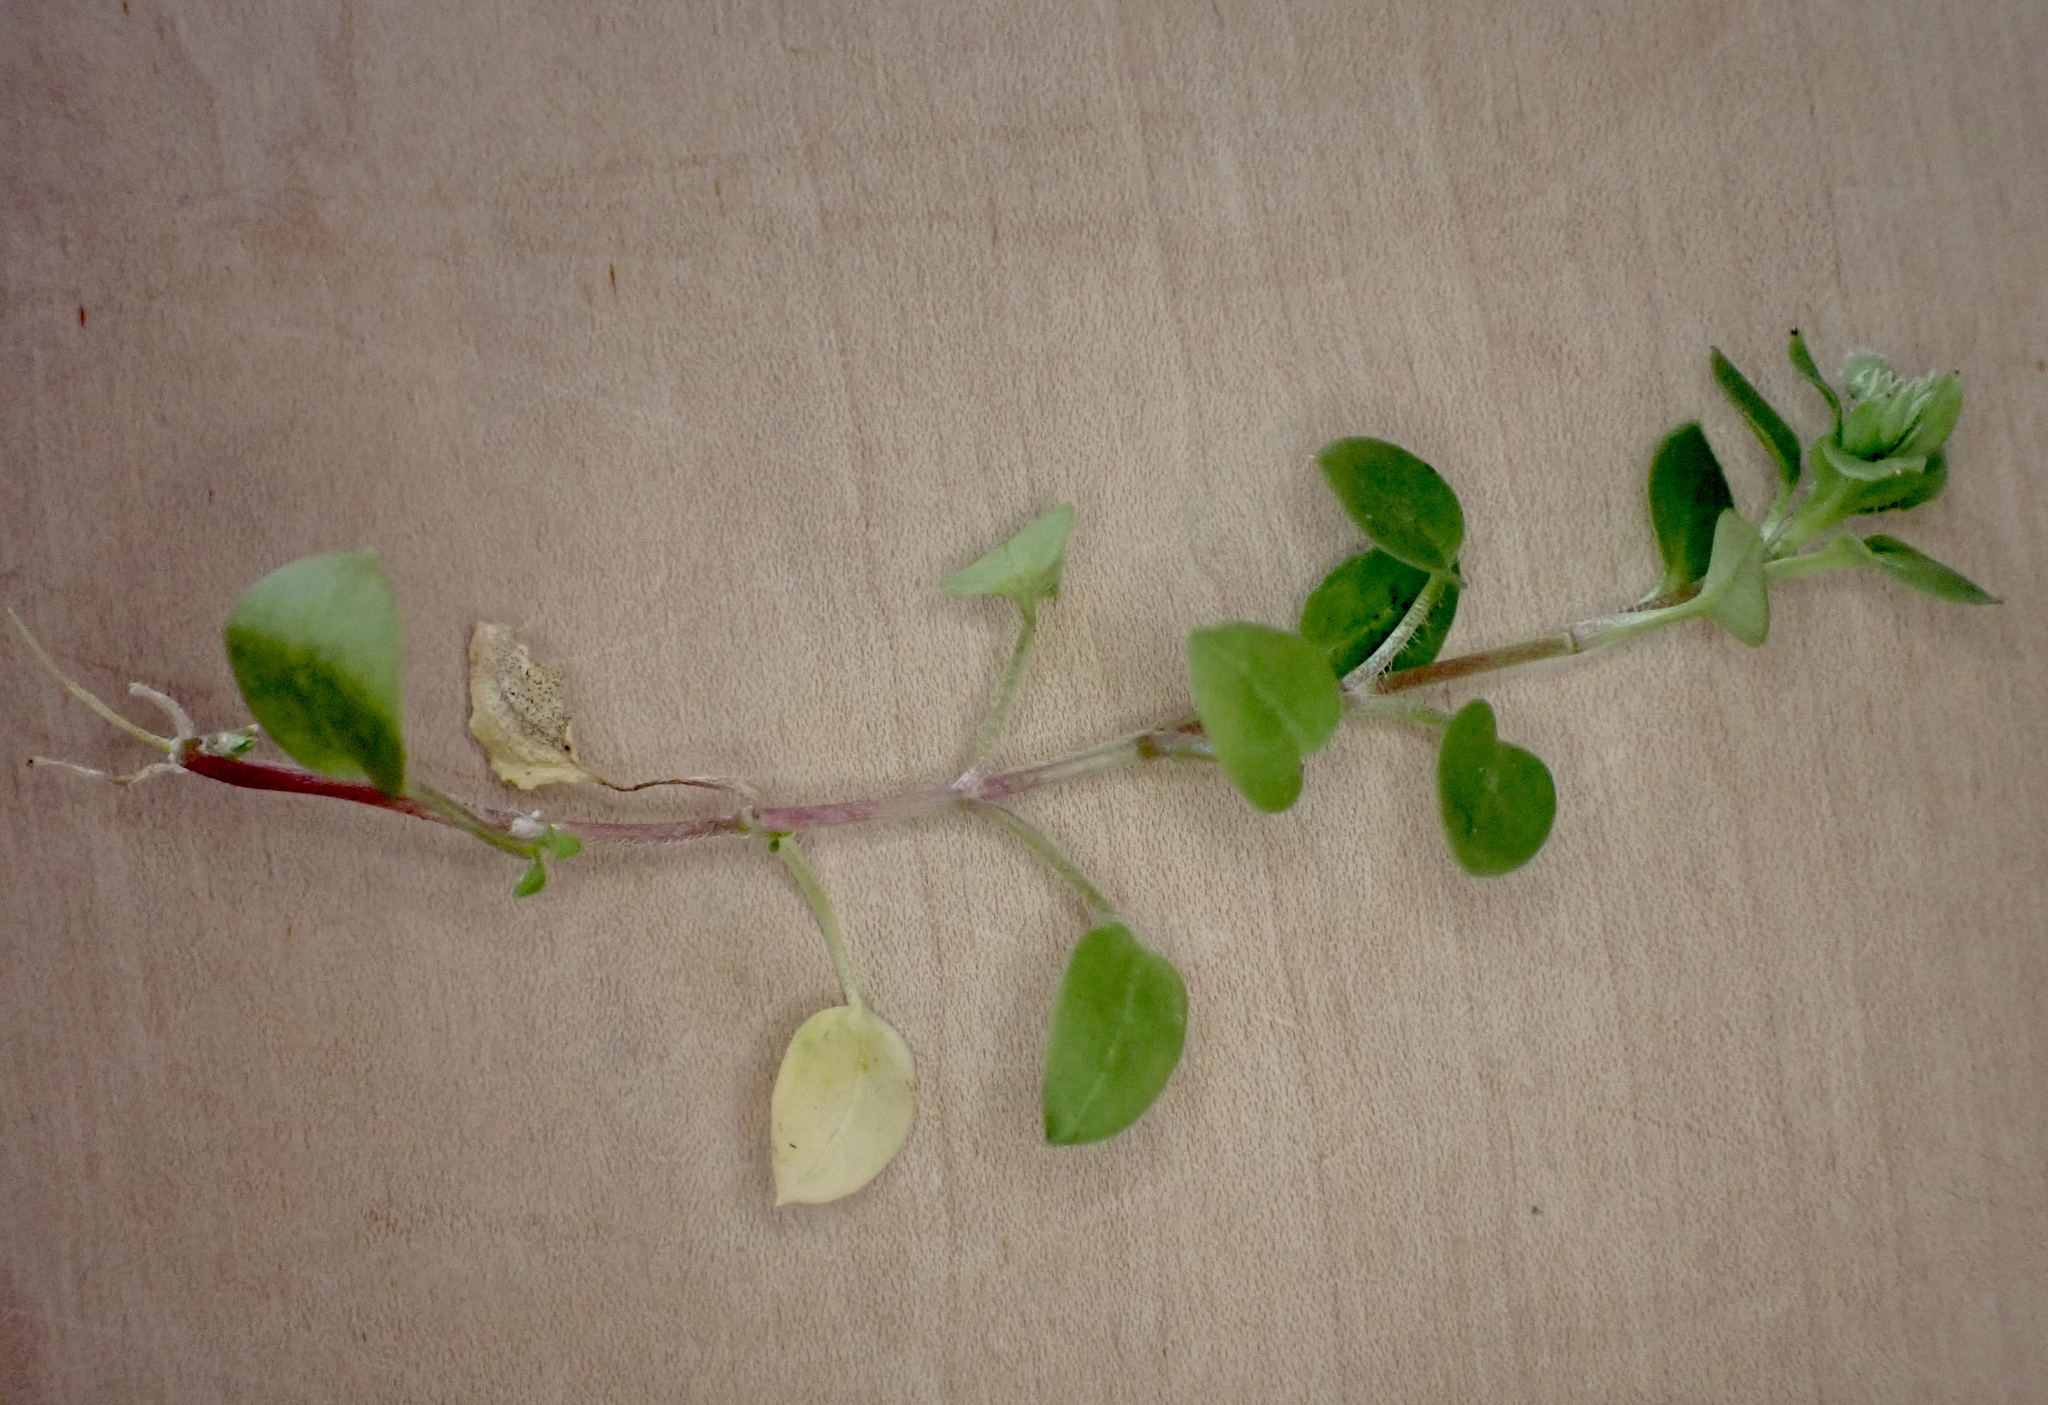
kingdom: Fungi
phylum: Ascomycota
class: Dothideomycetes
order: Mycosphaerellales
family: Mycosphaerellaceae
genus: Septoria
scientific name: Septoria stellariae
